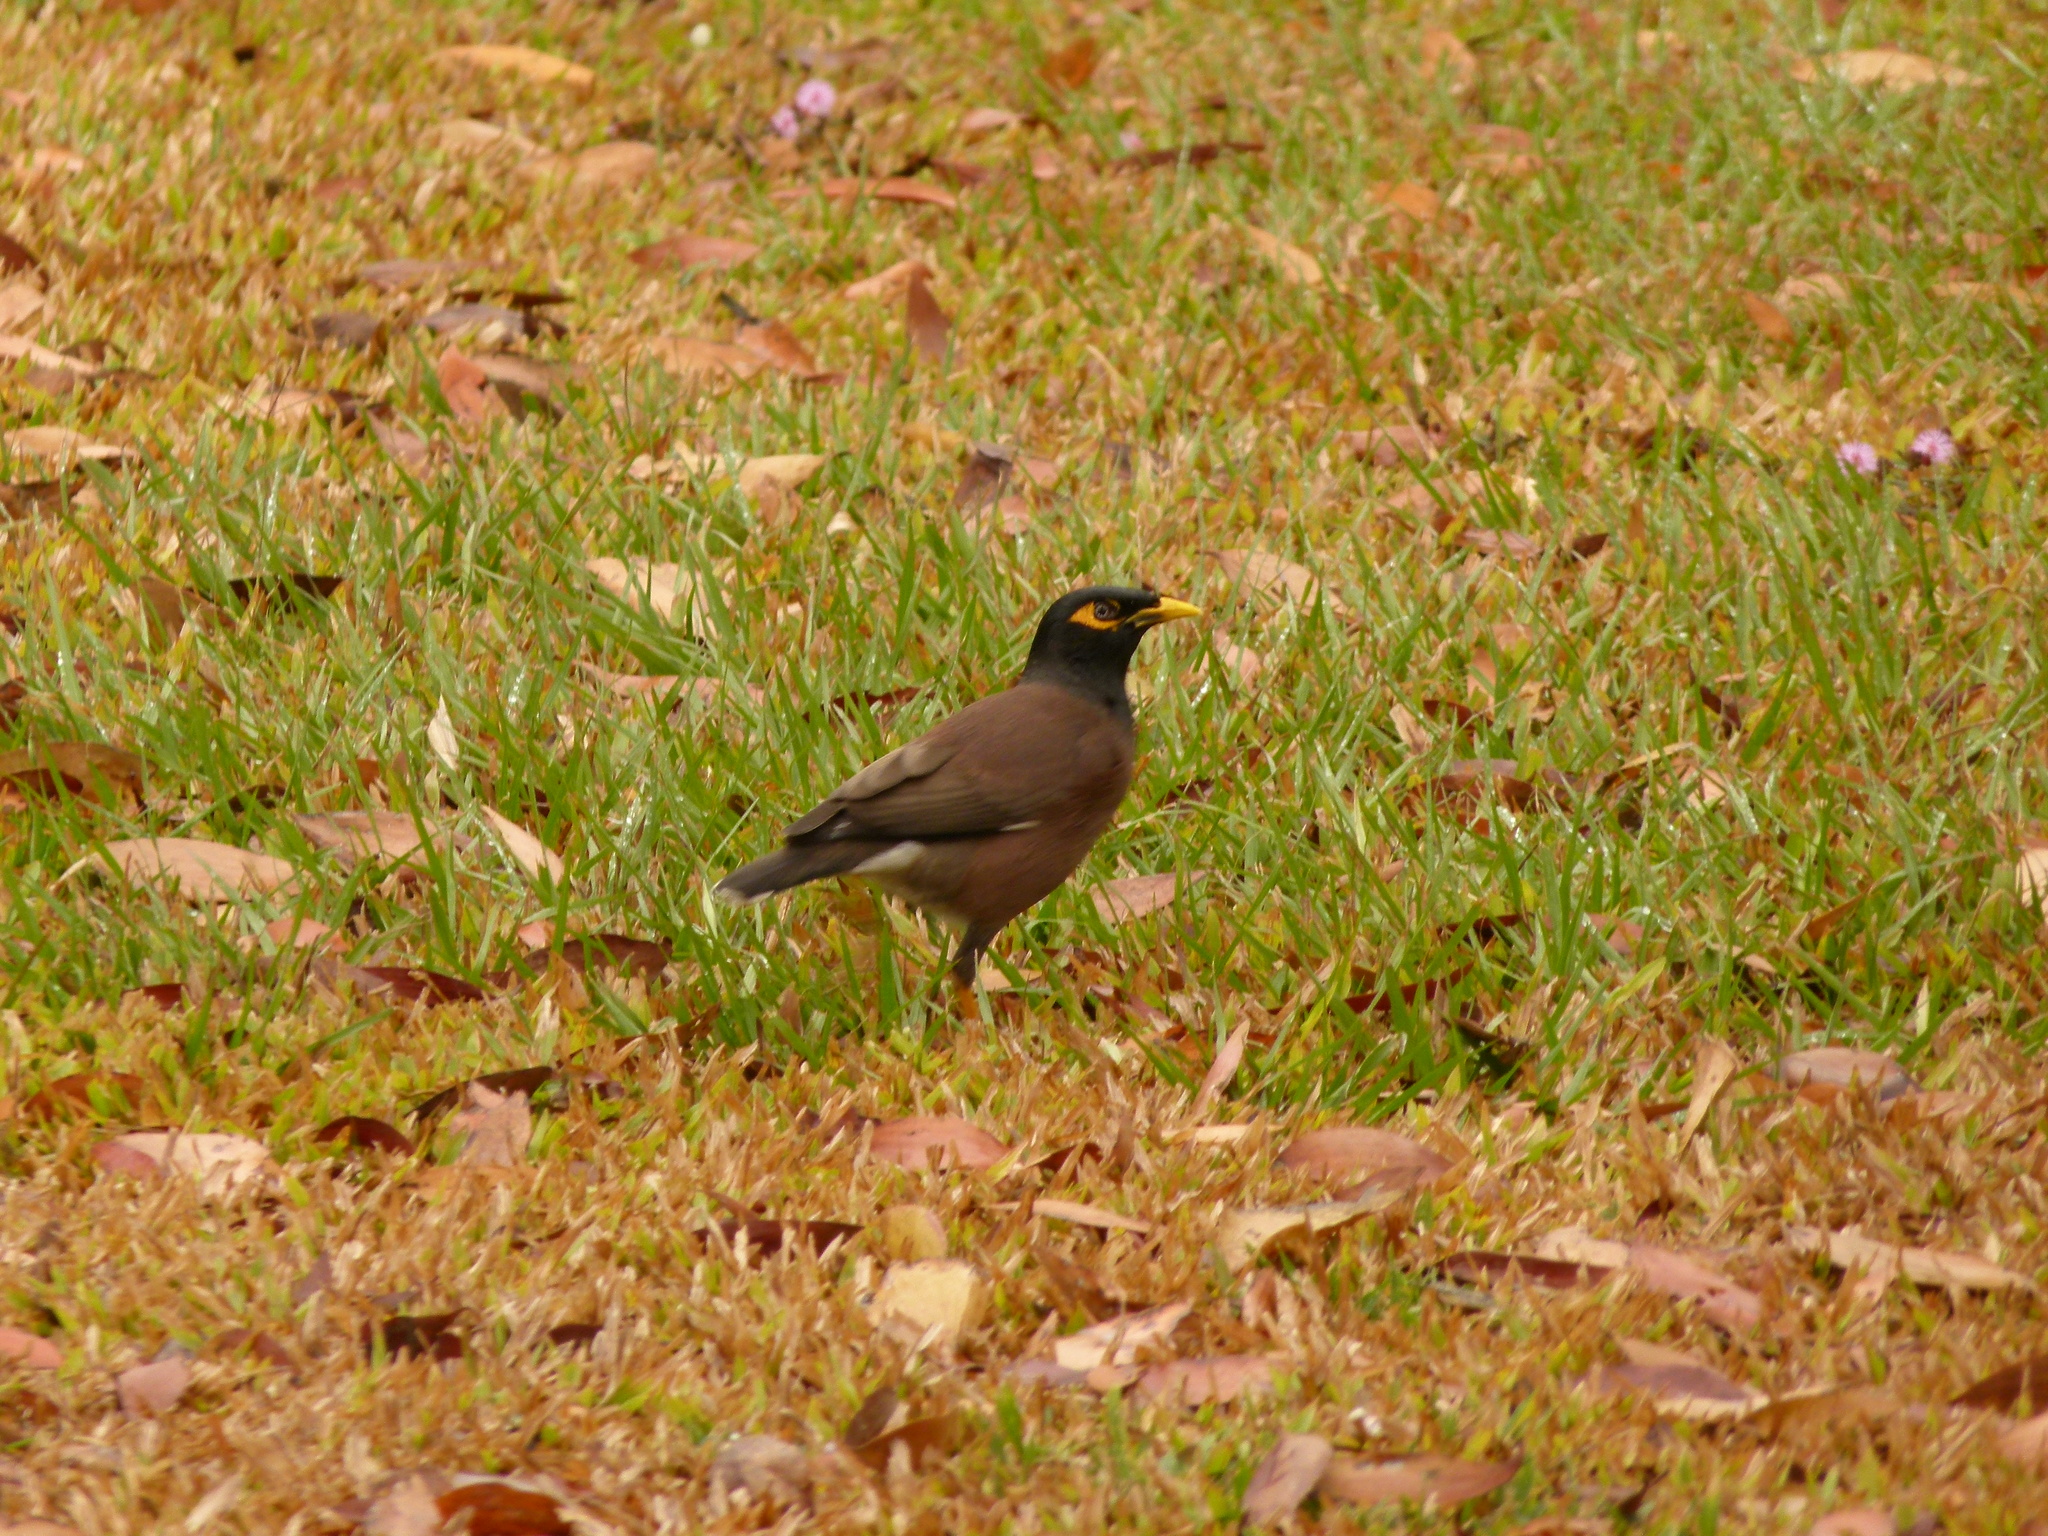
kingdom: Animalia
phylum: Chordata
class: Aves
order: Passeriformes
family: Sturnidae
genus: Acridotheres
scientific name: Acridotheres tristis
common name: Common myna
